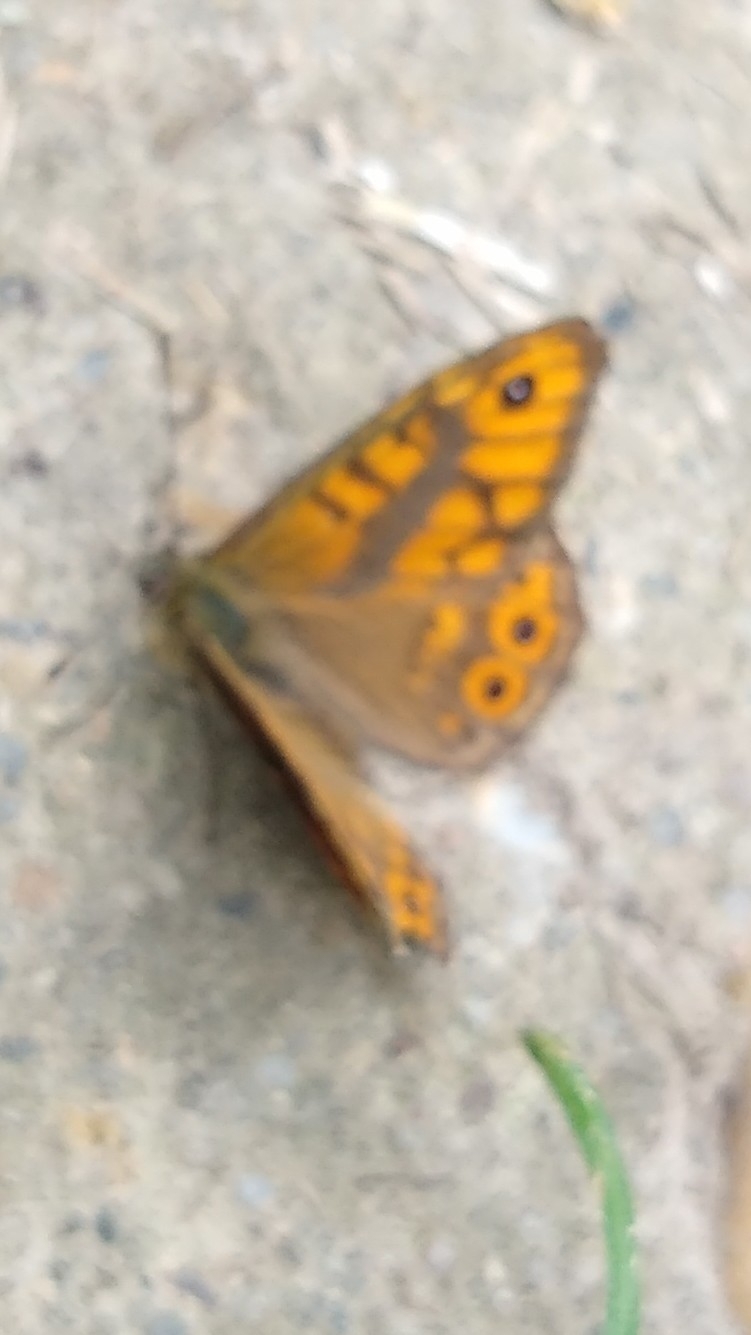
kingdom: Animalia
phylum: Arthropoda
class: Insecta
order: Lepidoptera
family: Nymphalidae
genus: Pararge
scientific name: Pararge Lasiommata megera
